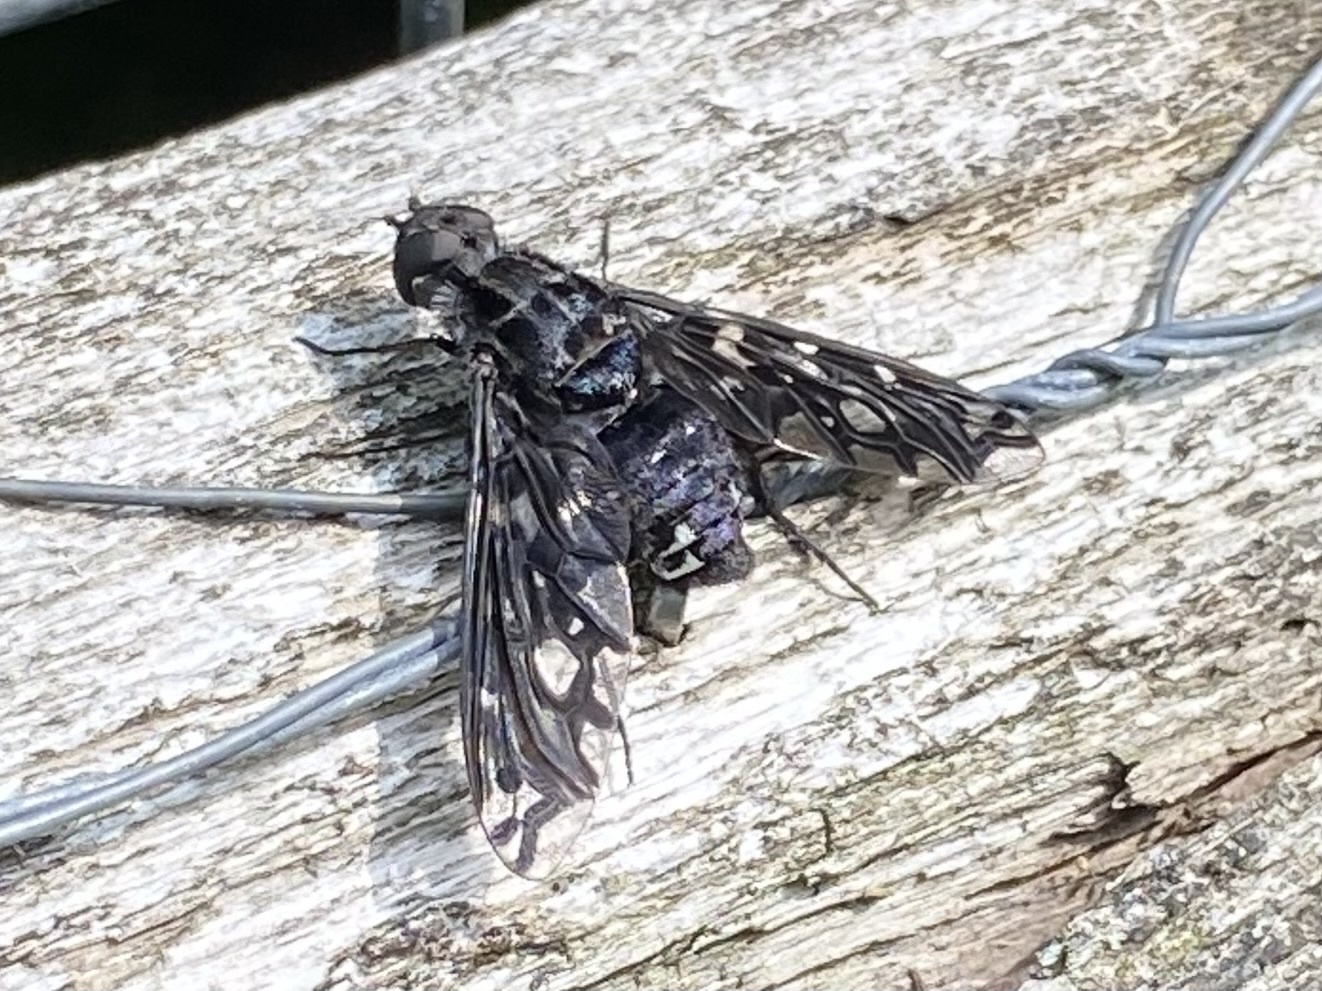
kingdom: Animalia
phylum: Arthropoda
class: Insecta
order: Diptera
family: Bombyliidae
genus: Xenox
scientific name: Xenox tigrinus
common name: Tiger bee fly
